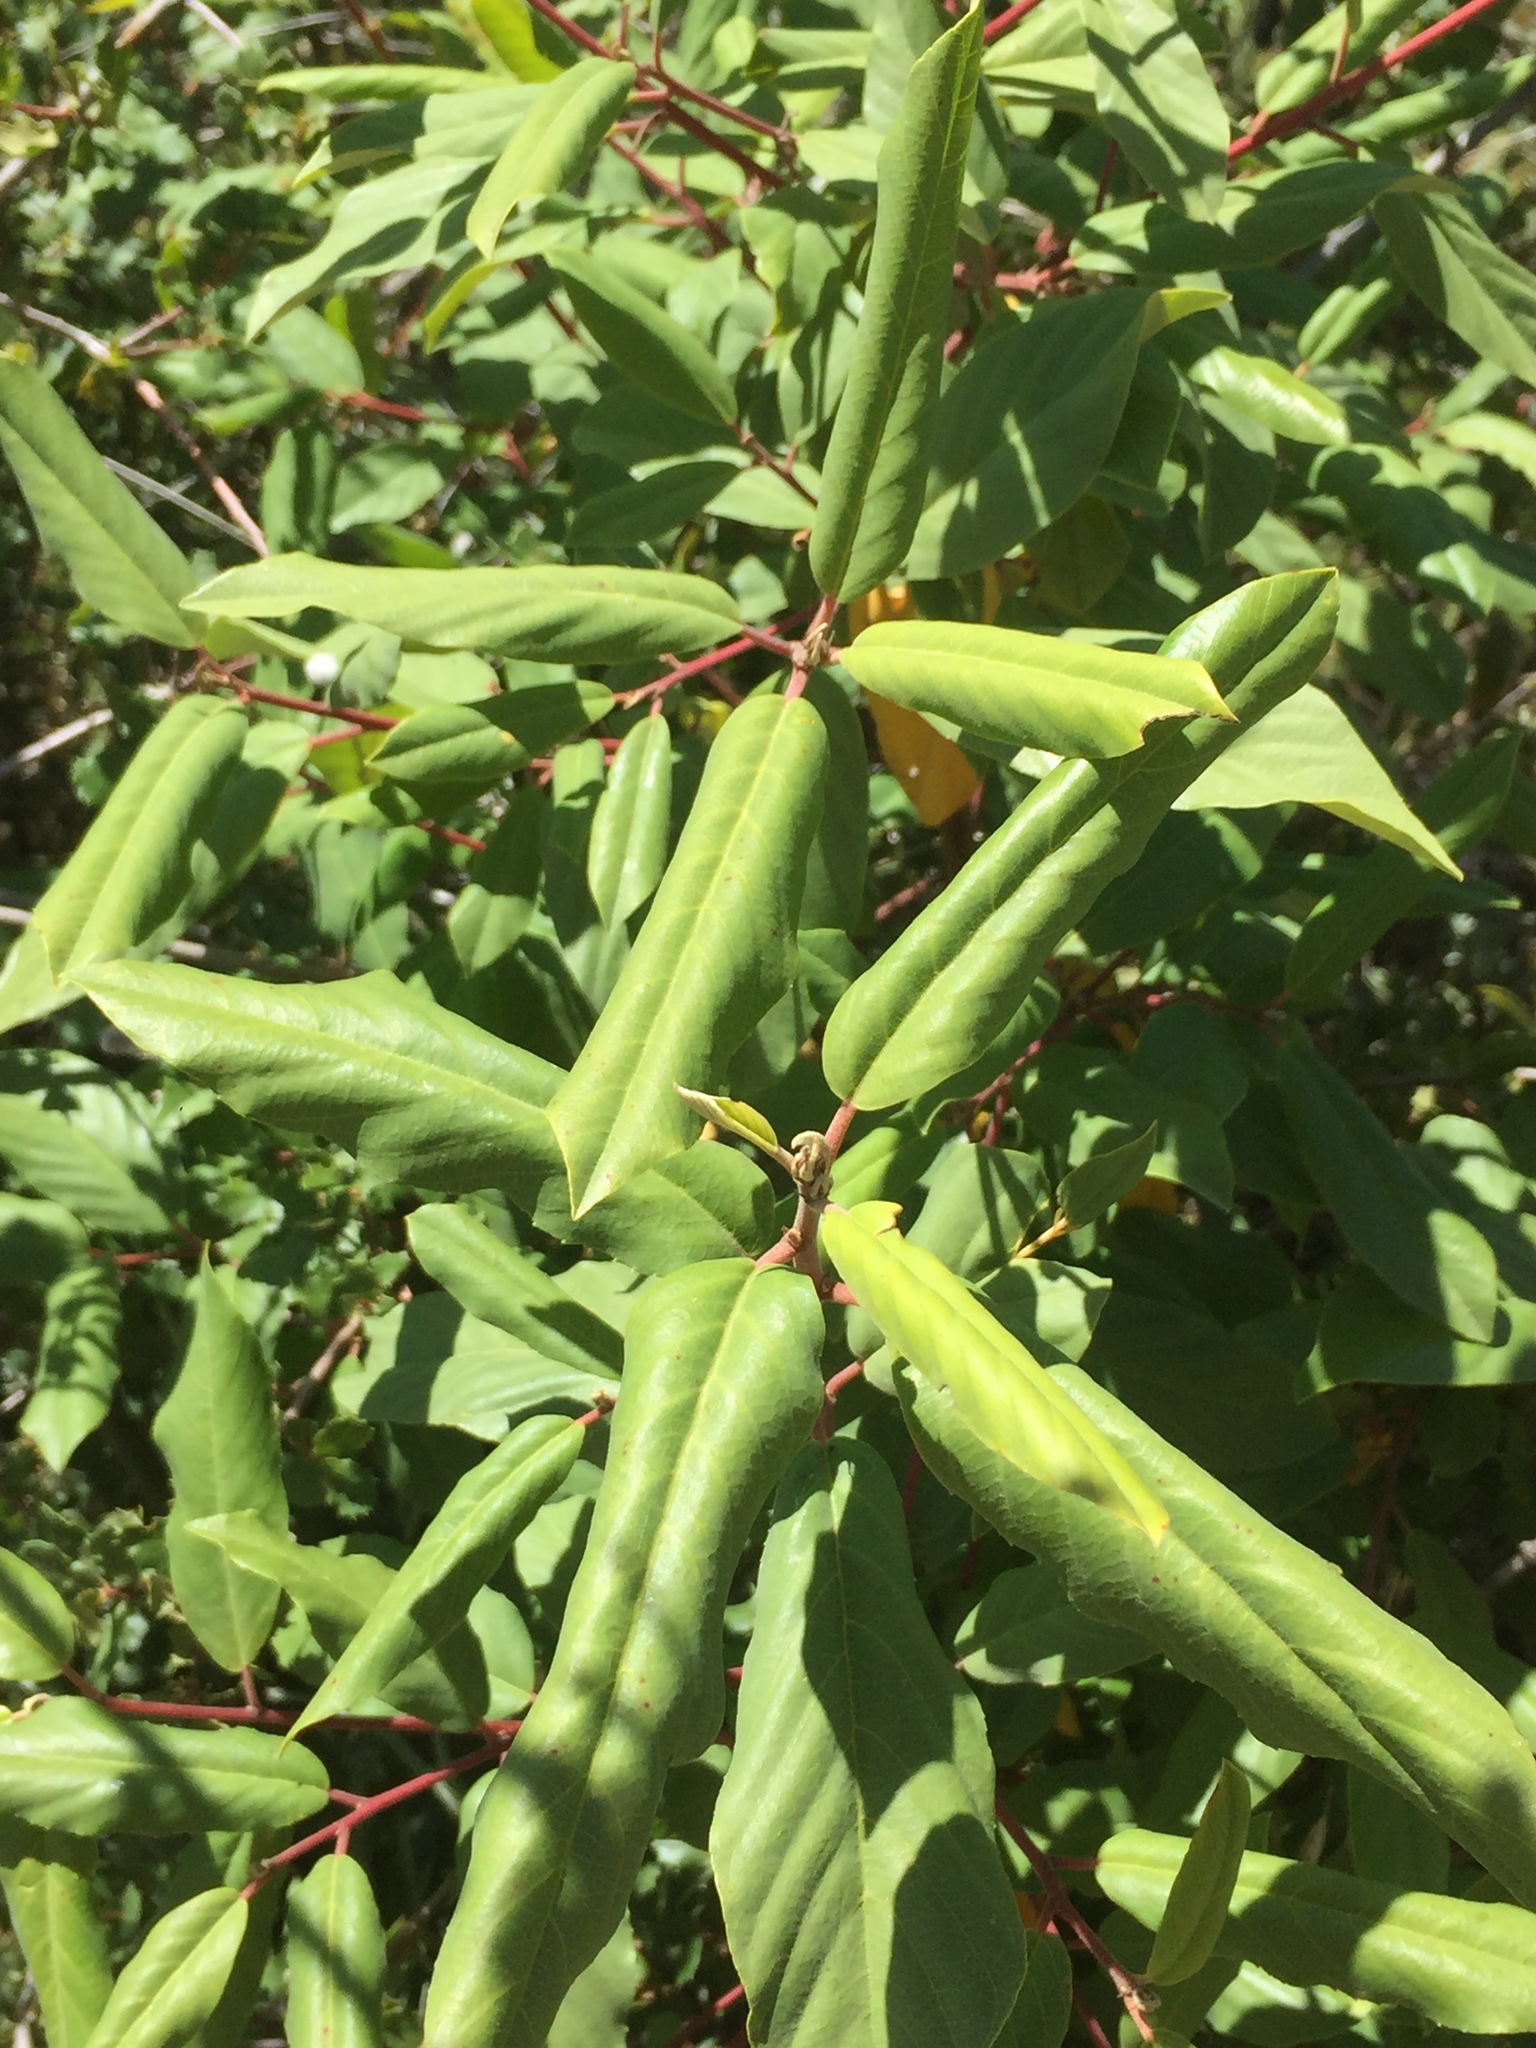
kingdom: Plantae
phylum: Tracheophyta
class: Magnoliopsida
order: Rosales
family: Rhamnaceae
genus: Frangula
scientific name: Frangula californica
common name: California buckthorn
